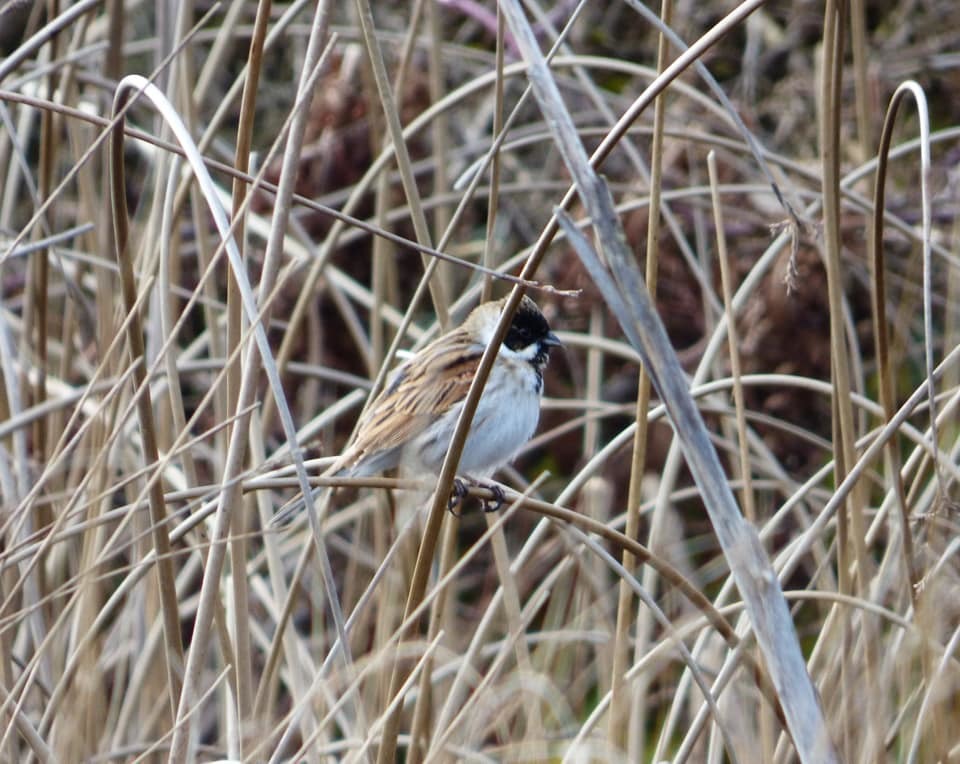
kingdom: Animalia
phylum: Chordata
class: Aves
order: Passeriformes
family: Emberizidae
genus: Emberiza
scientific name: Emberiza schoeniclus
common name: Reed bunting
